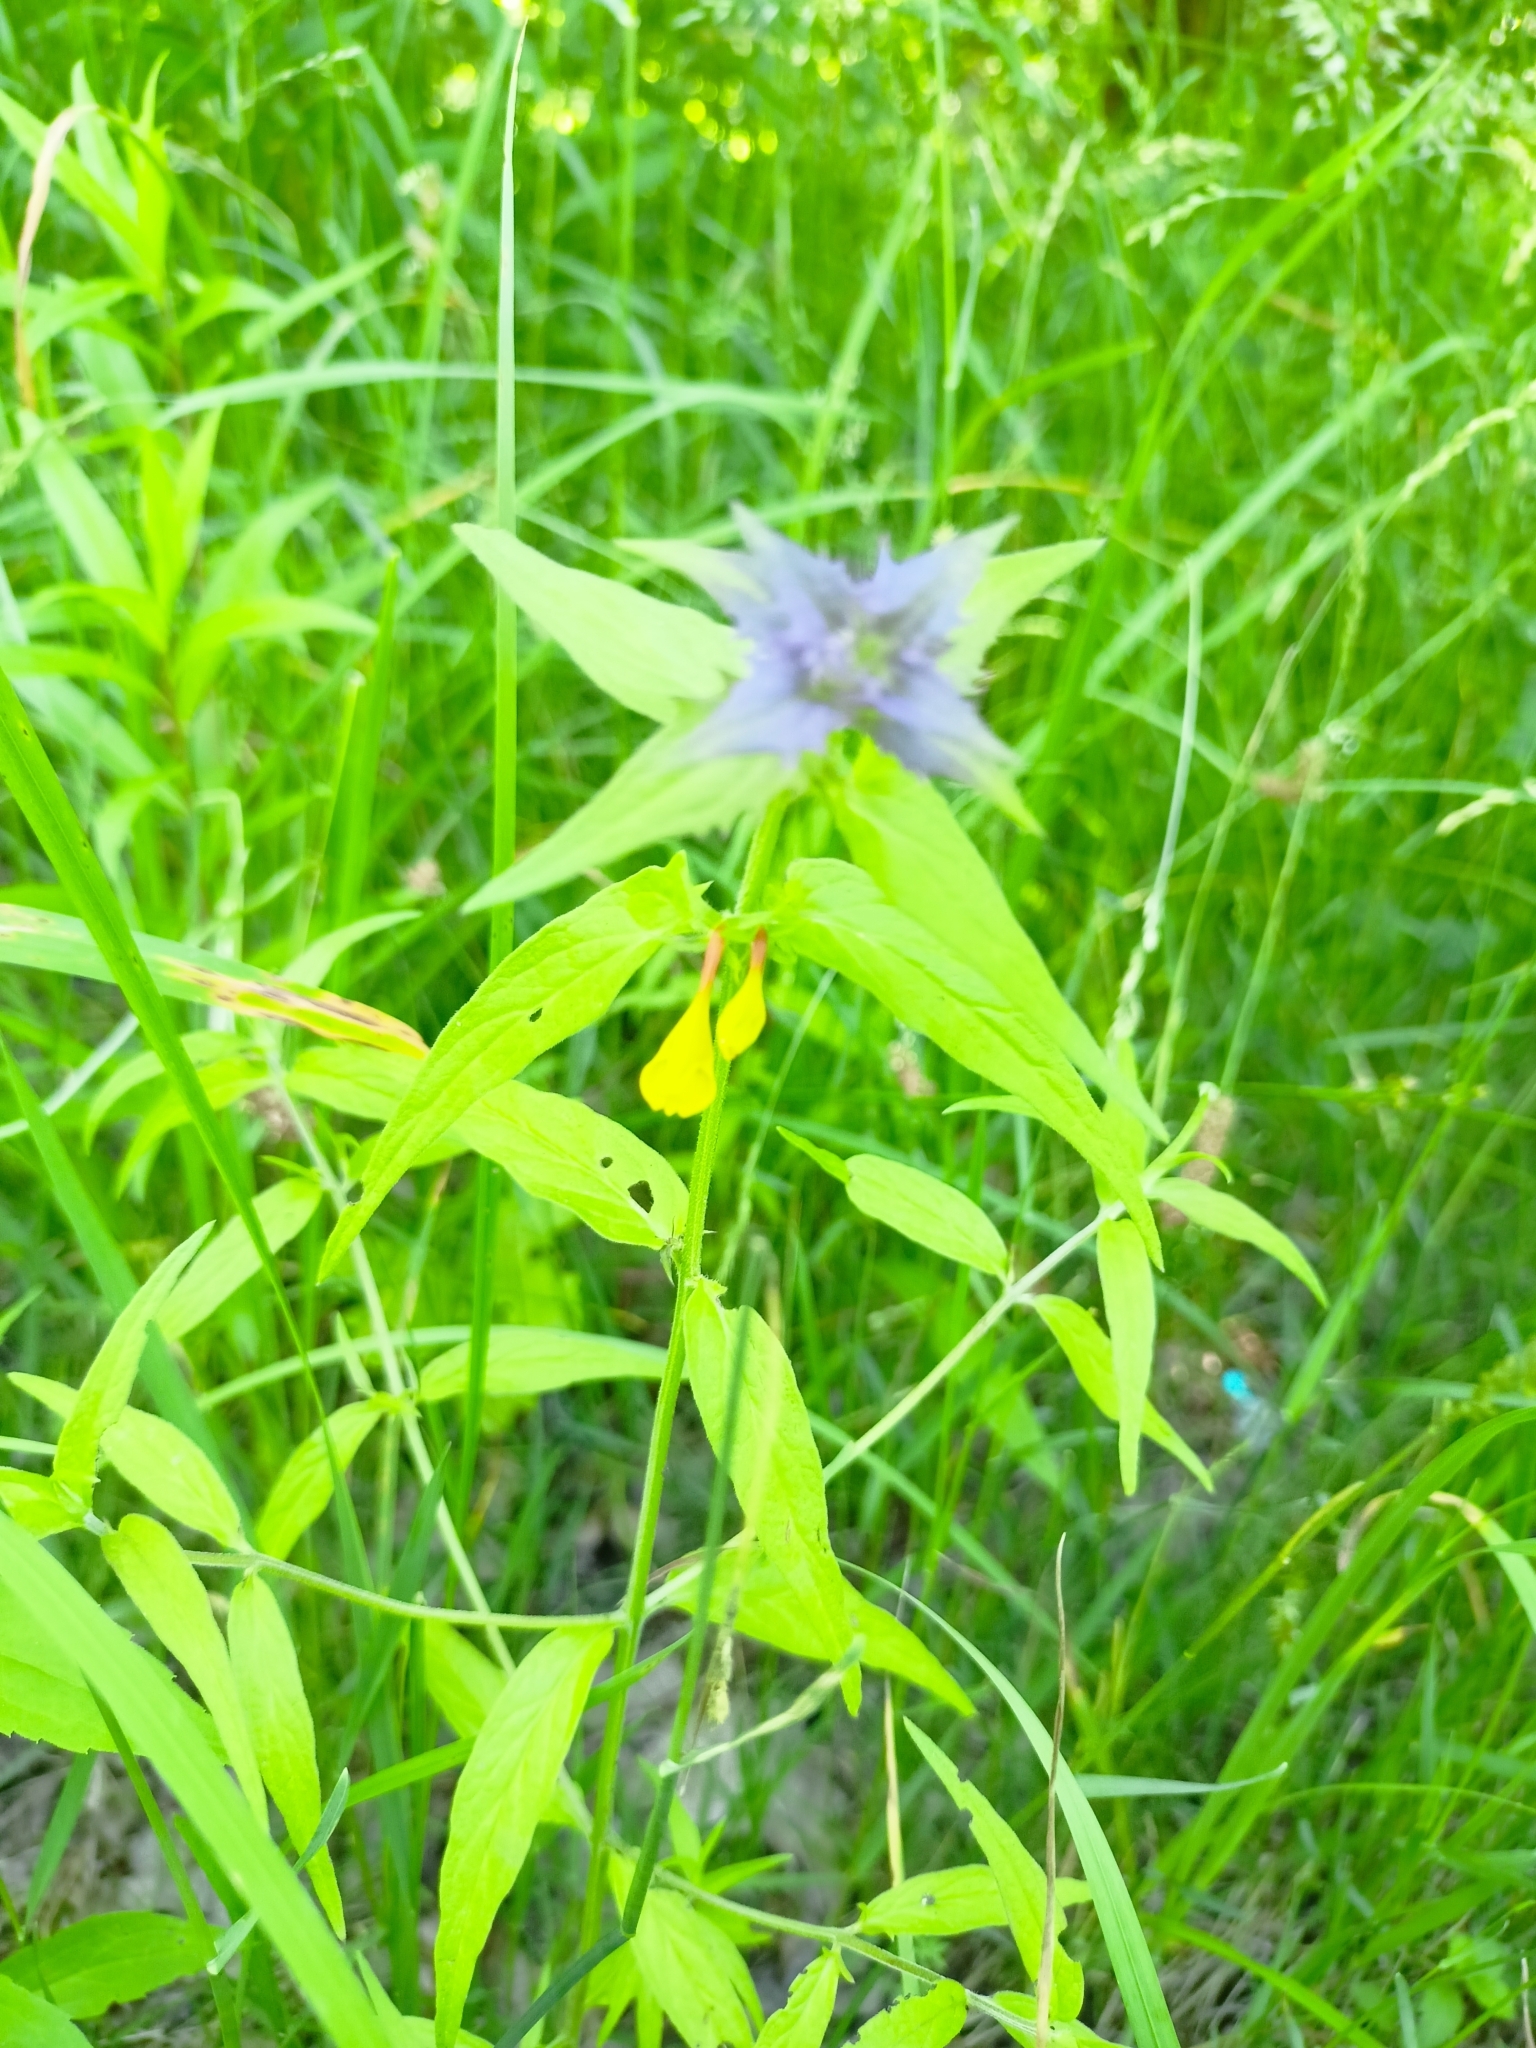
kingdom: Plantae
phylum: Tracheophyta
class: Magnoliopsida
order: Lamiales
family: Orobanchaceae
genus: Melampyrum
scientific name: Melampyrum nemorosum
